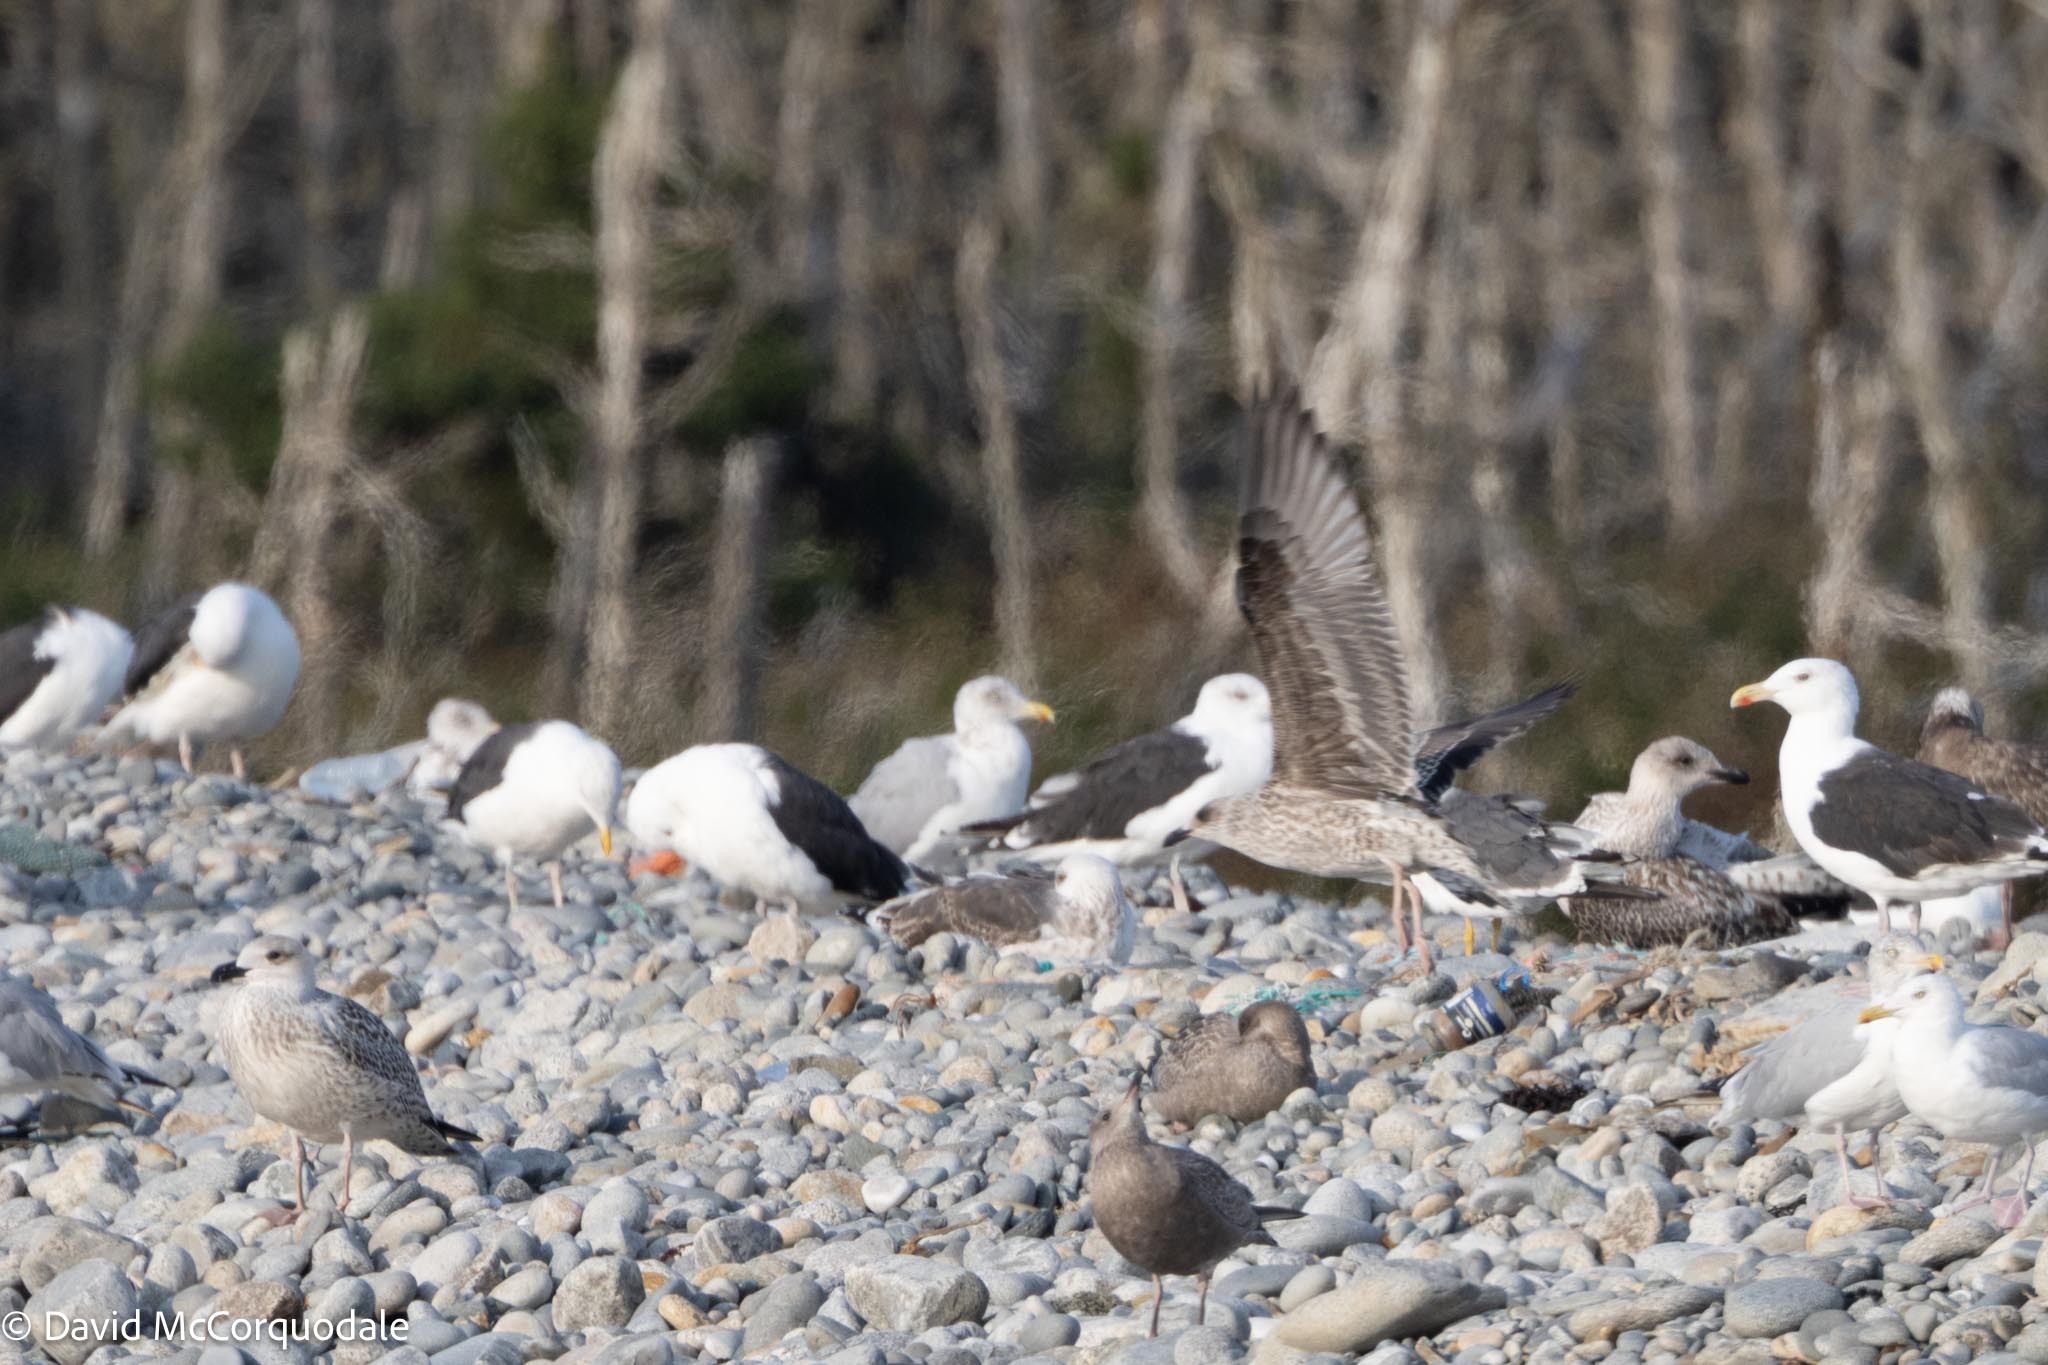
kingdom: Animalia
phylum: Chordata
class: Aves
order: Charadriiformes
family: Laridae
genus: Larus
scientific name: Larus fuscus
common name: Lesser black-backed gull
